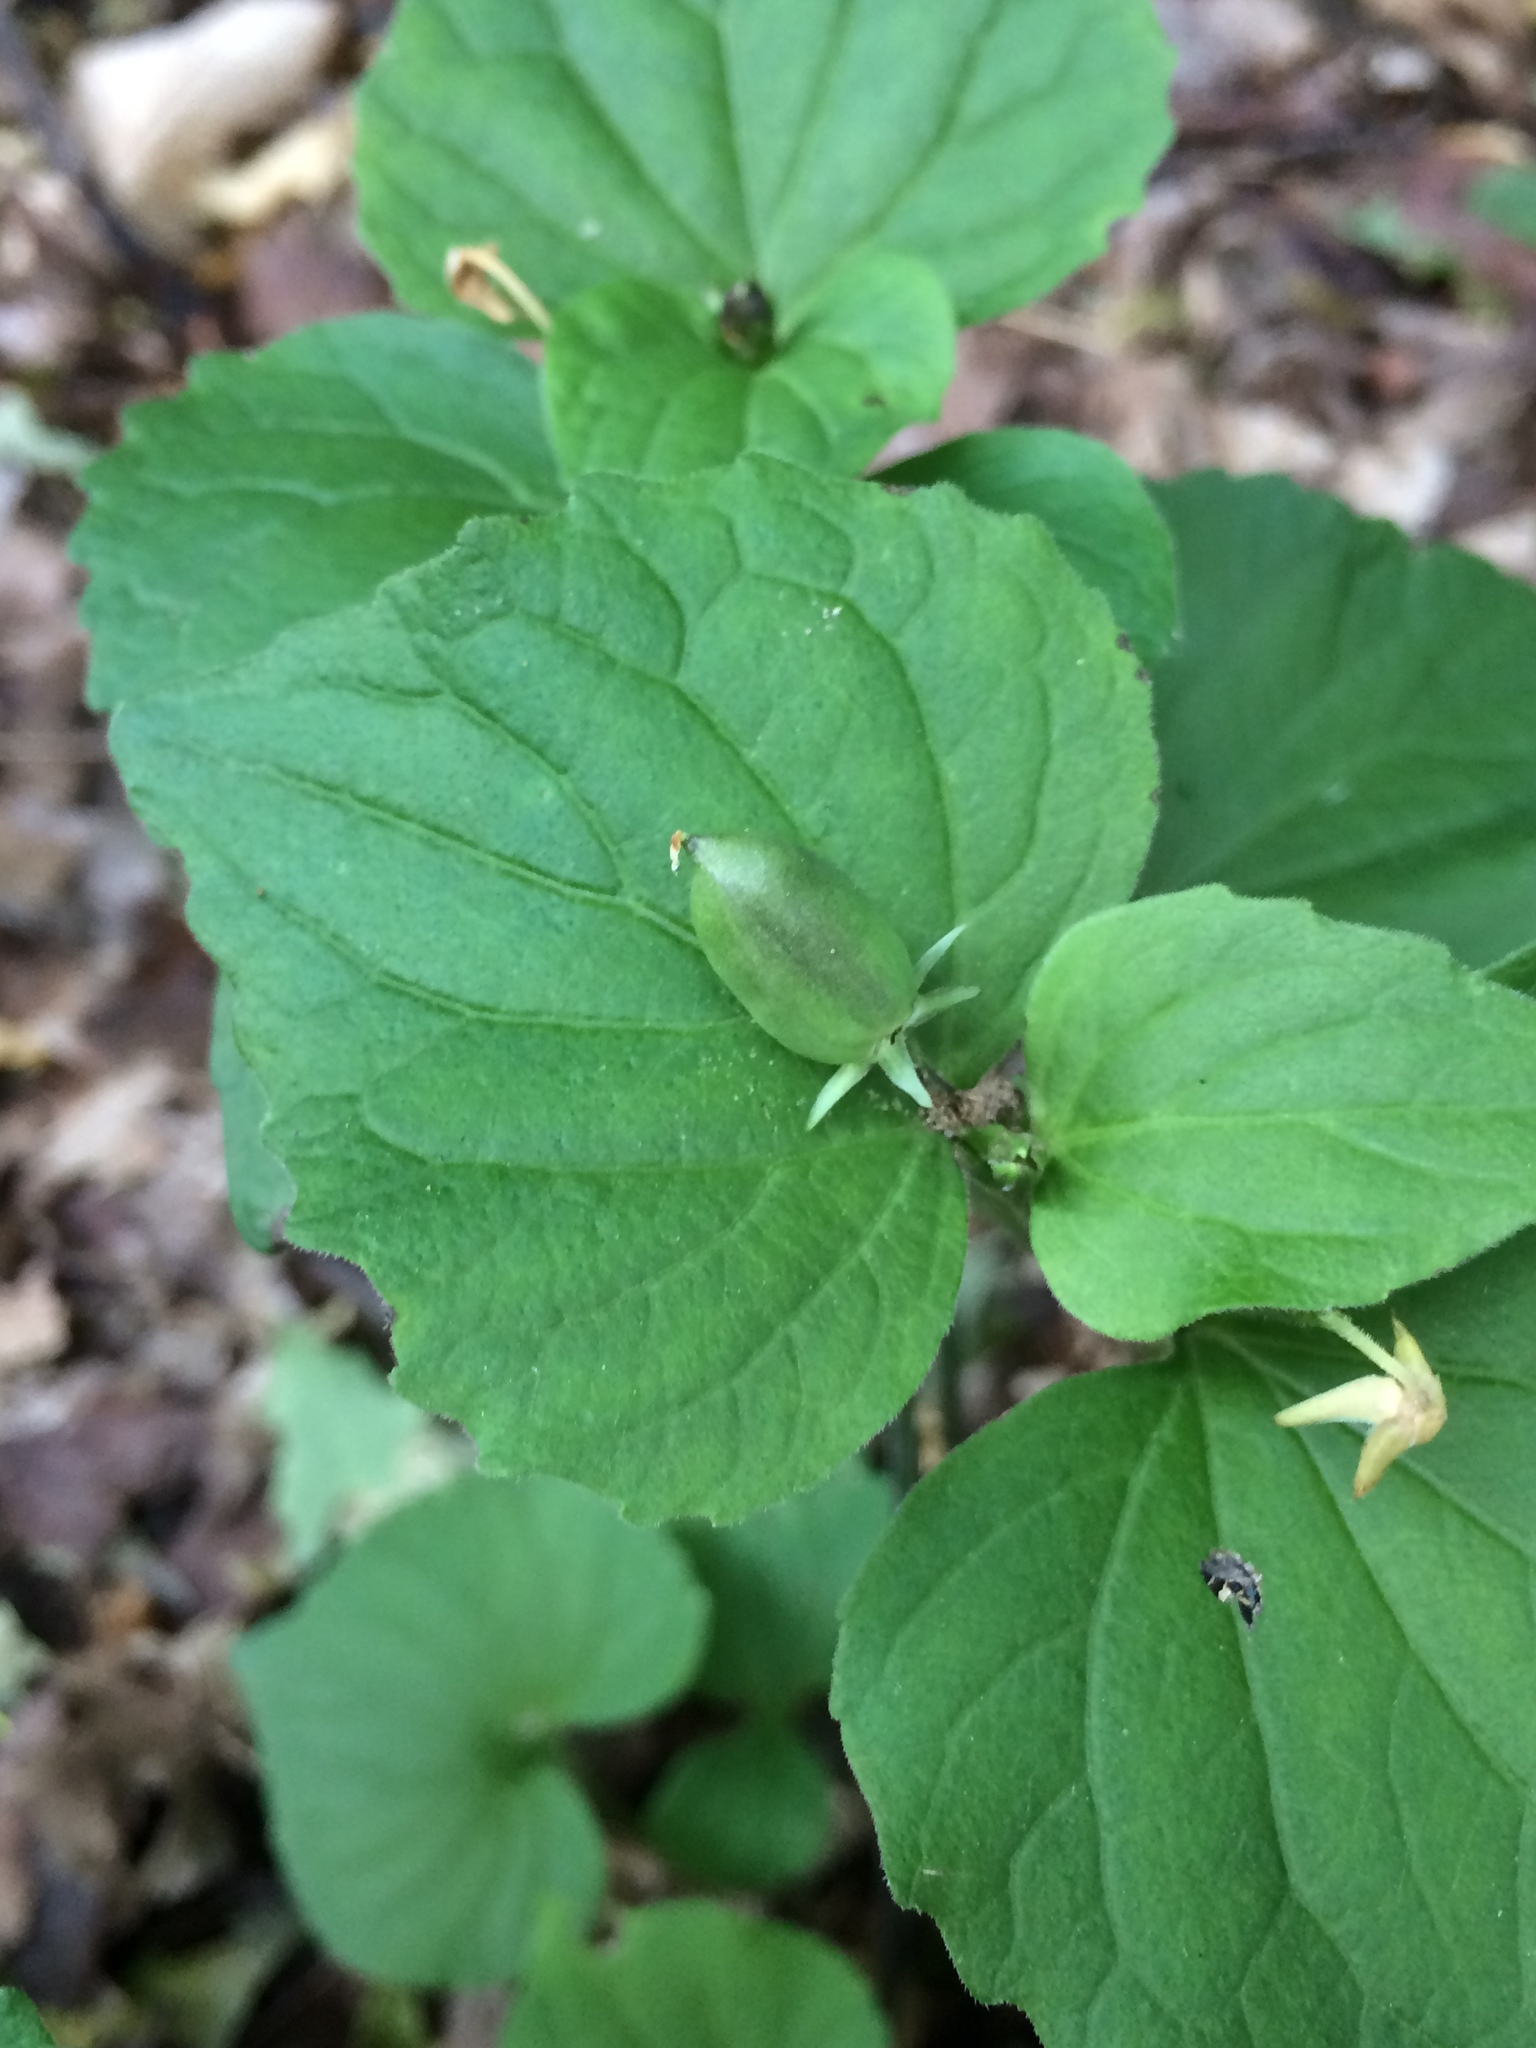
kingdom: Plantae
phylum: Tracheophyta
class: Magnoliopsida
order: Malpighiales
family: Violaceae
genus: Viola
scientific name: Viola canadensis
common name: Canada violet
